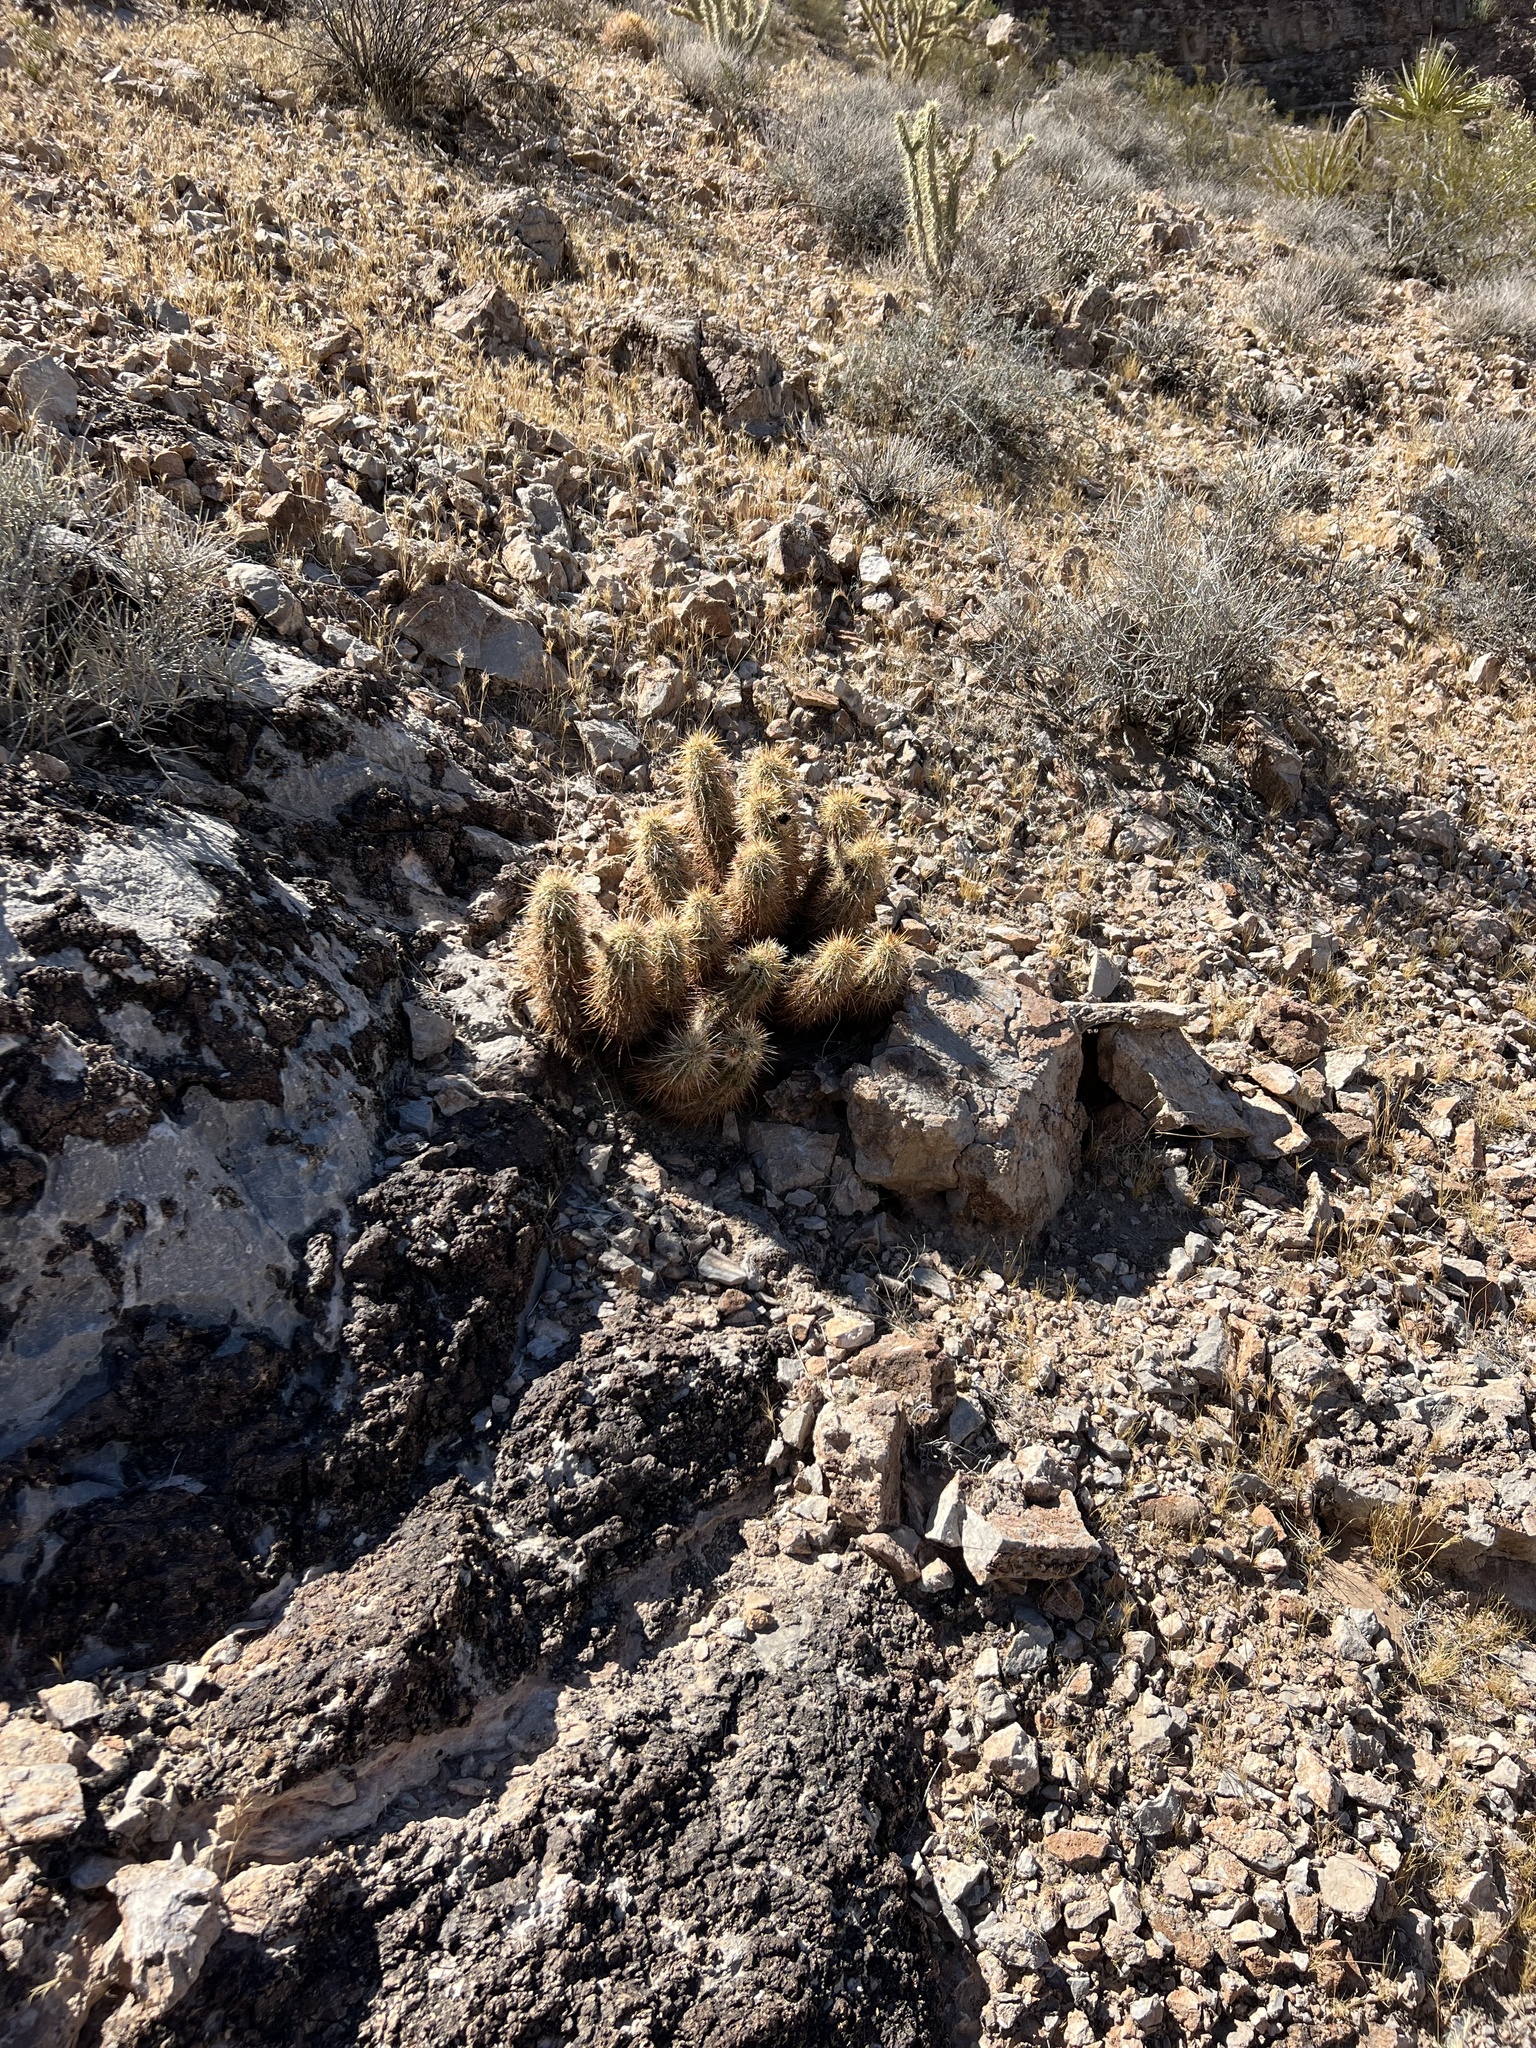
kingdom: Plantae
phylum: Tracheophyta
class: Magnoliopsida
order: Caryophyllales
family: Cactaceae
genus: Echinocereus
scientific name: Echinocereus engelmannii
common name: Engelmann's hedgehog cactus
